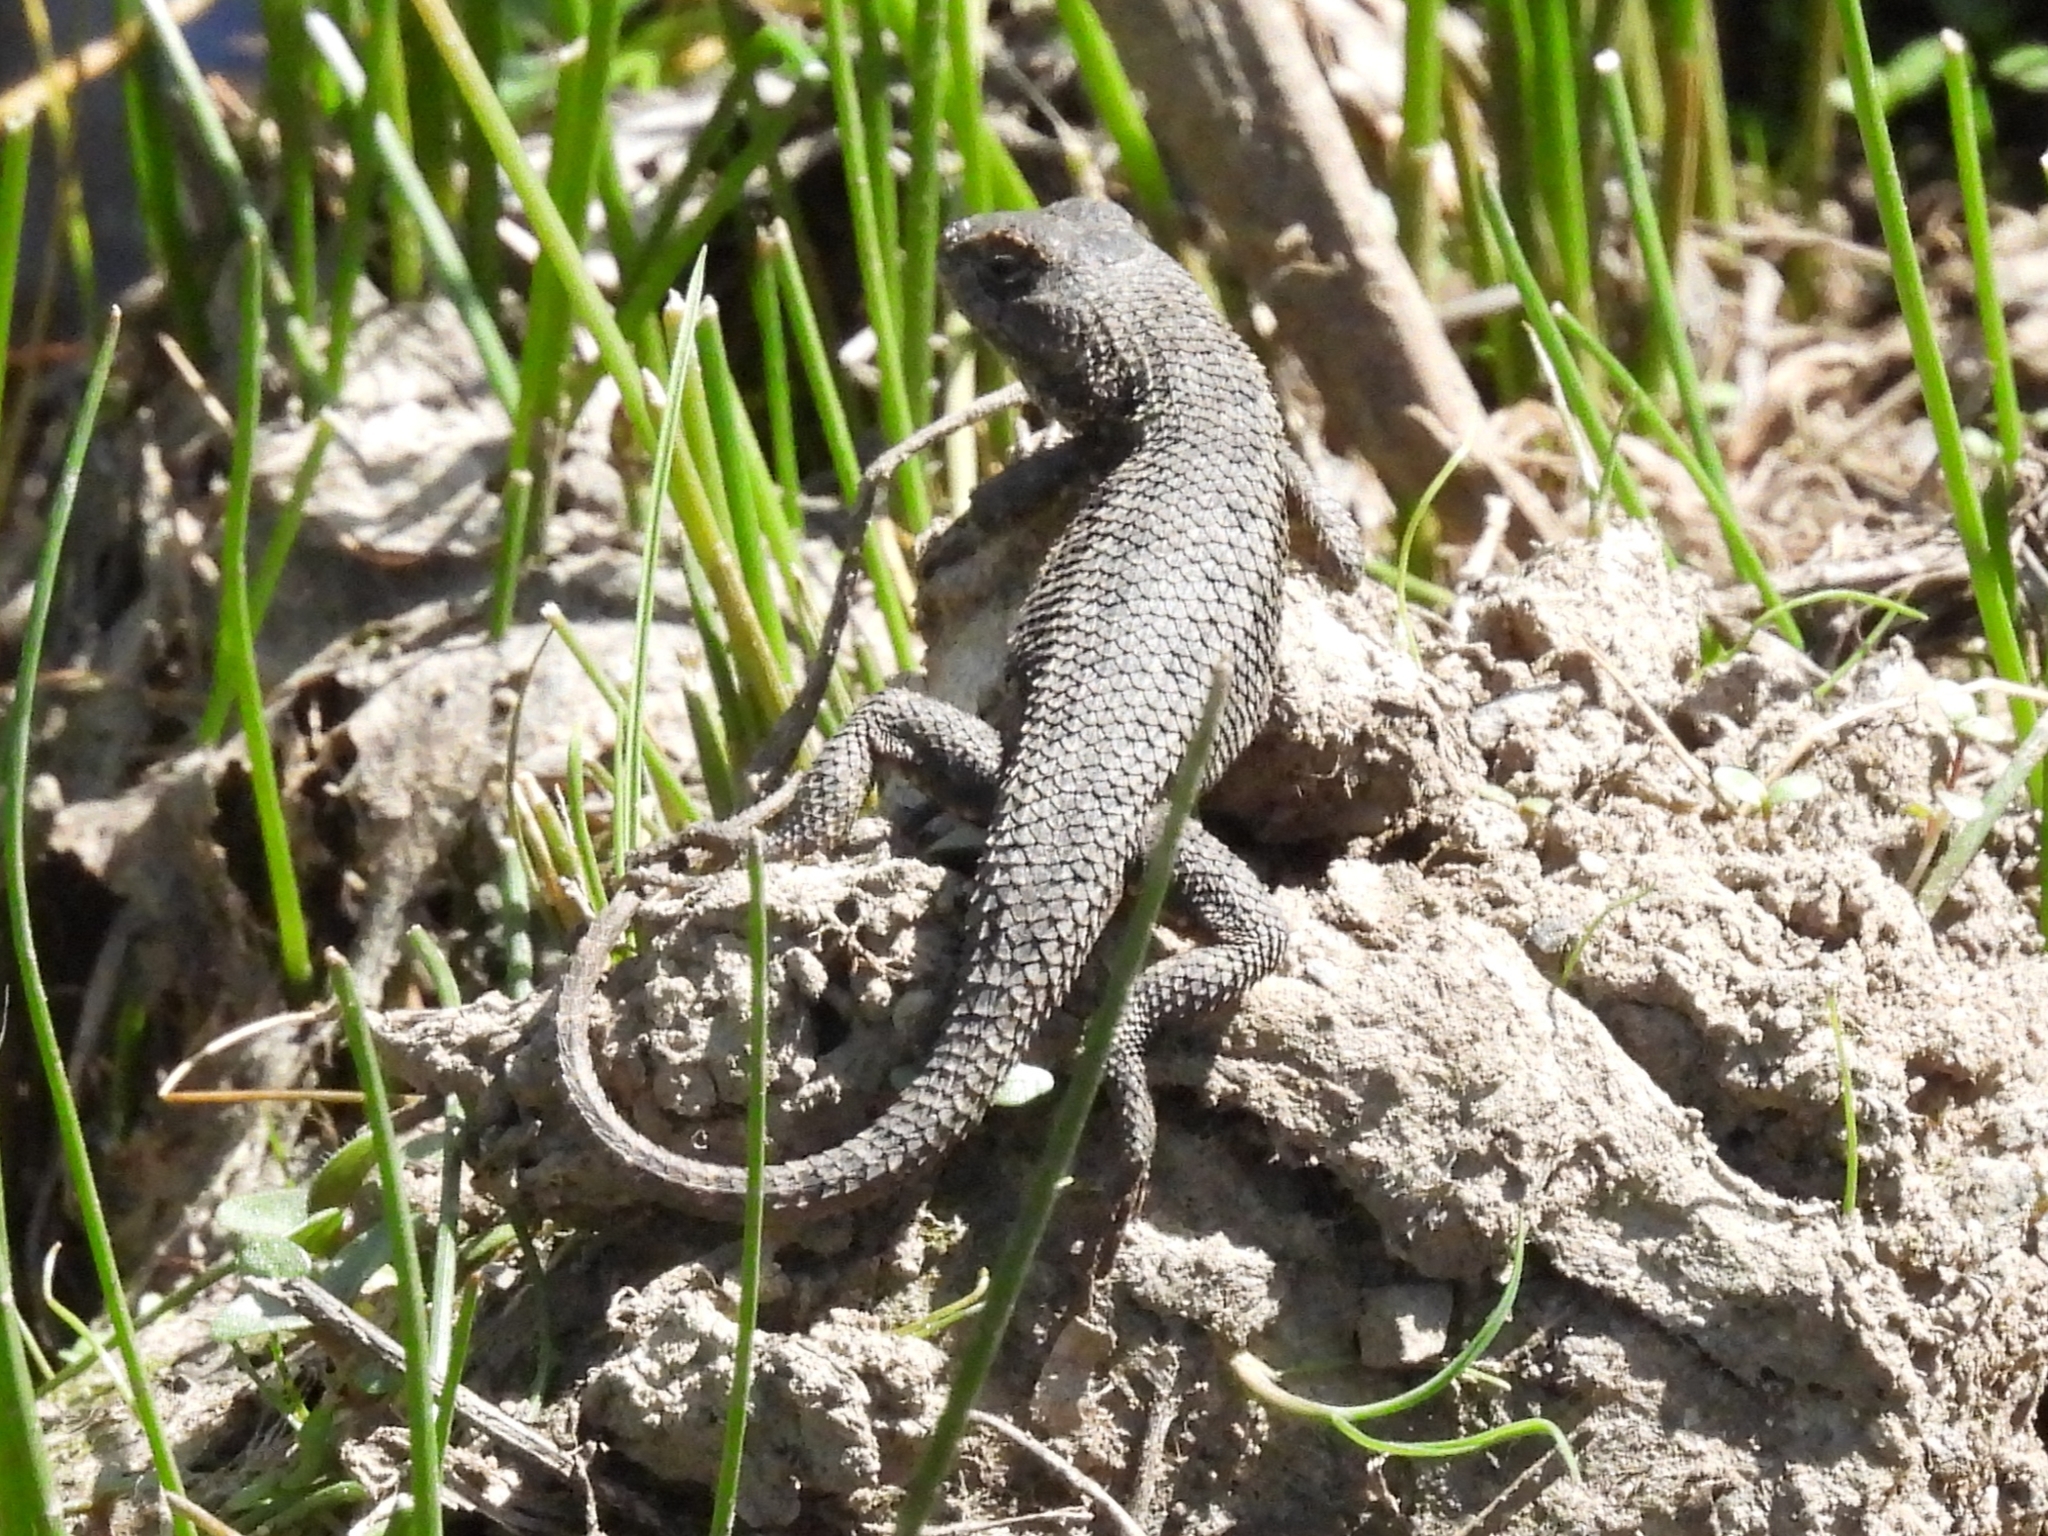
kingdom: Animalia
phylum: Chordata
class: Squamata
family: Phrynosomatidae
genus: Sceloporus
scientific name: Sceloporus occidentalis
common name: Western fence lizard
